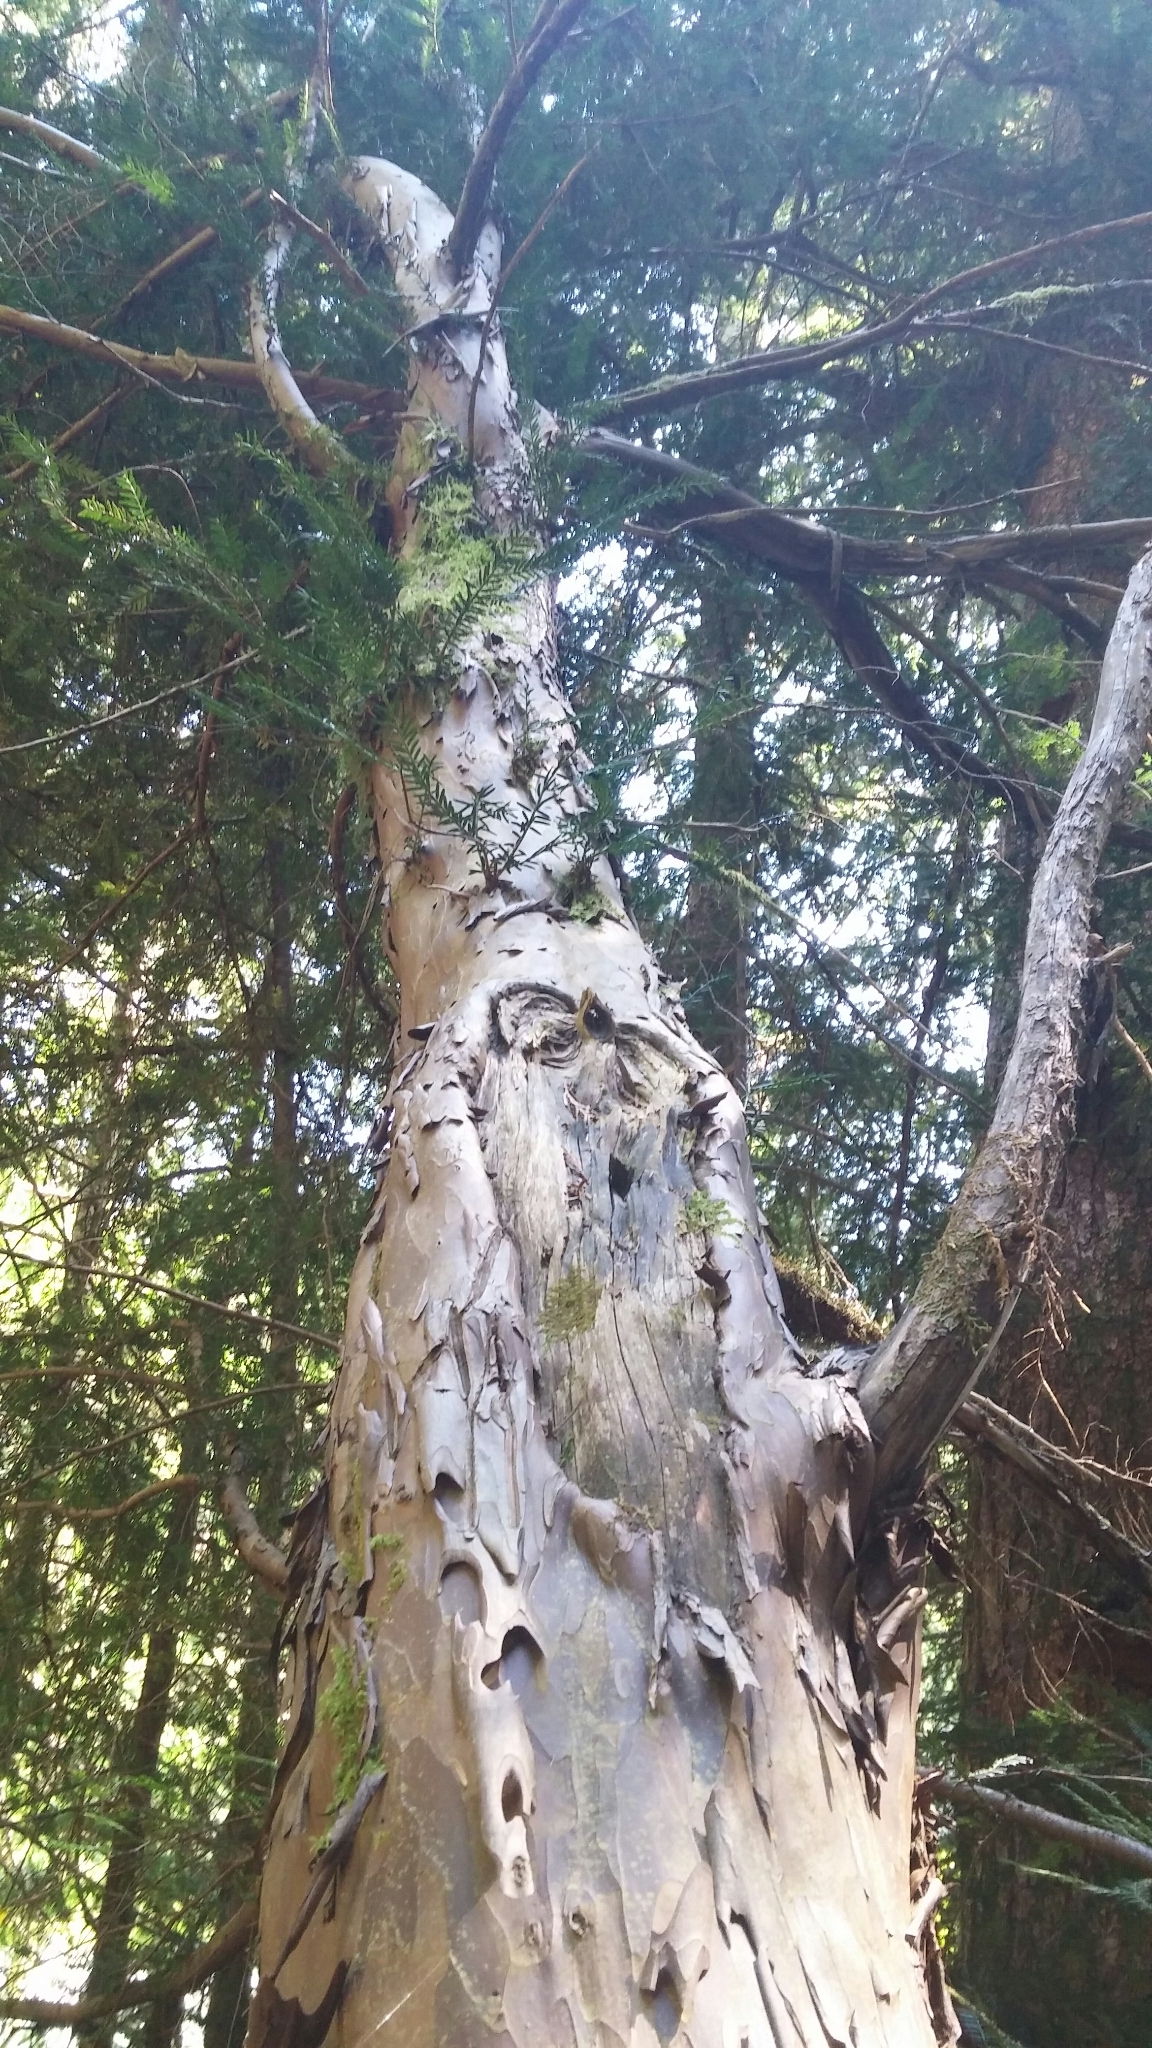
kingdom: Plantae
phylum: Tracheophyta
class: Pinopsida
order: Pinales
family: Taxaceae
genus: Taxus
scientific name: Taxus brevifolia
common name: Pacific yew
